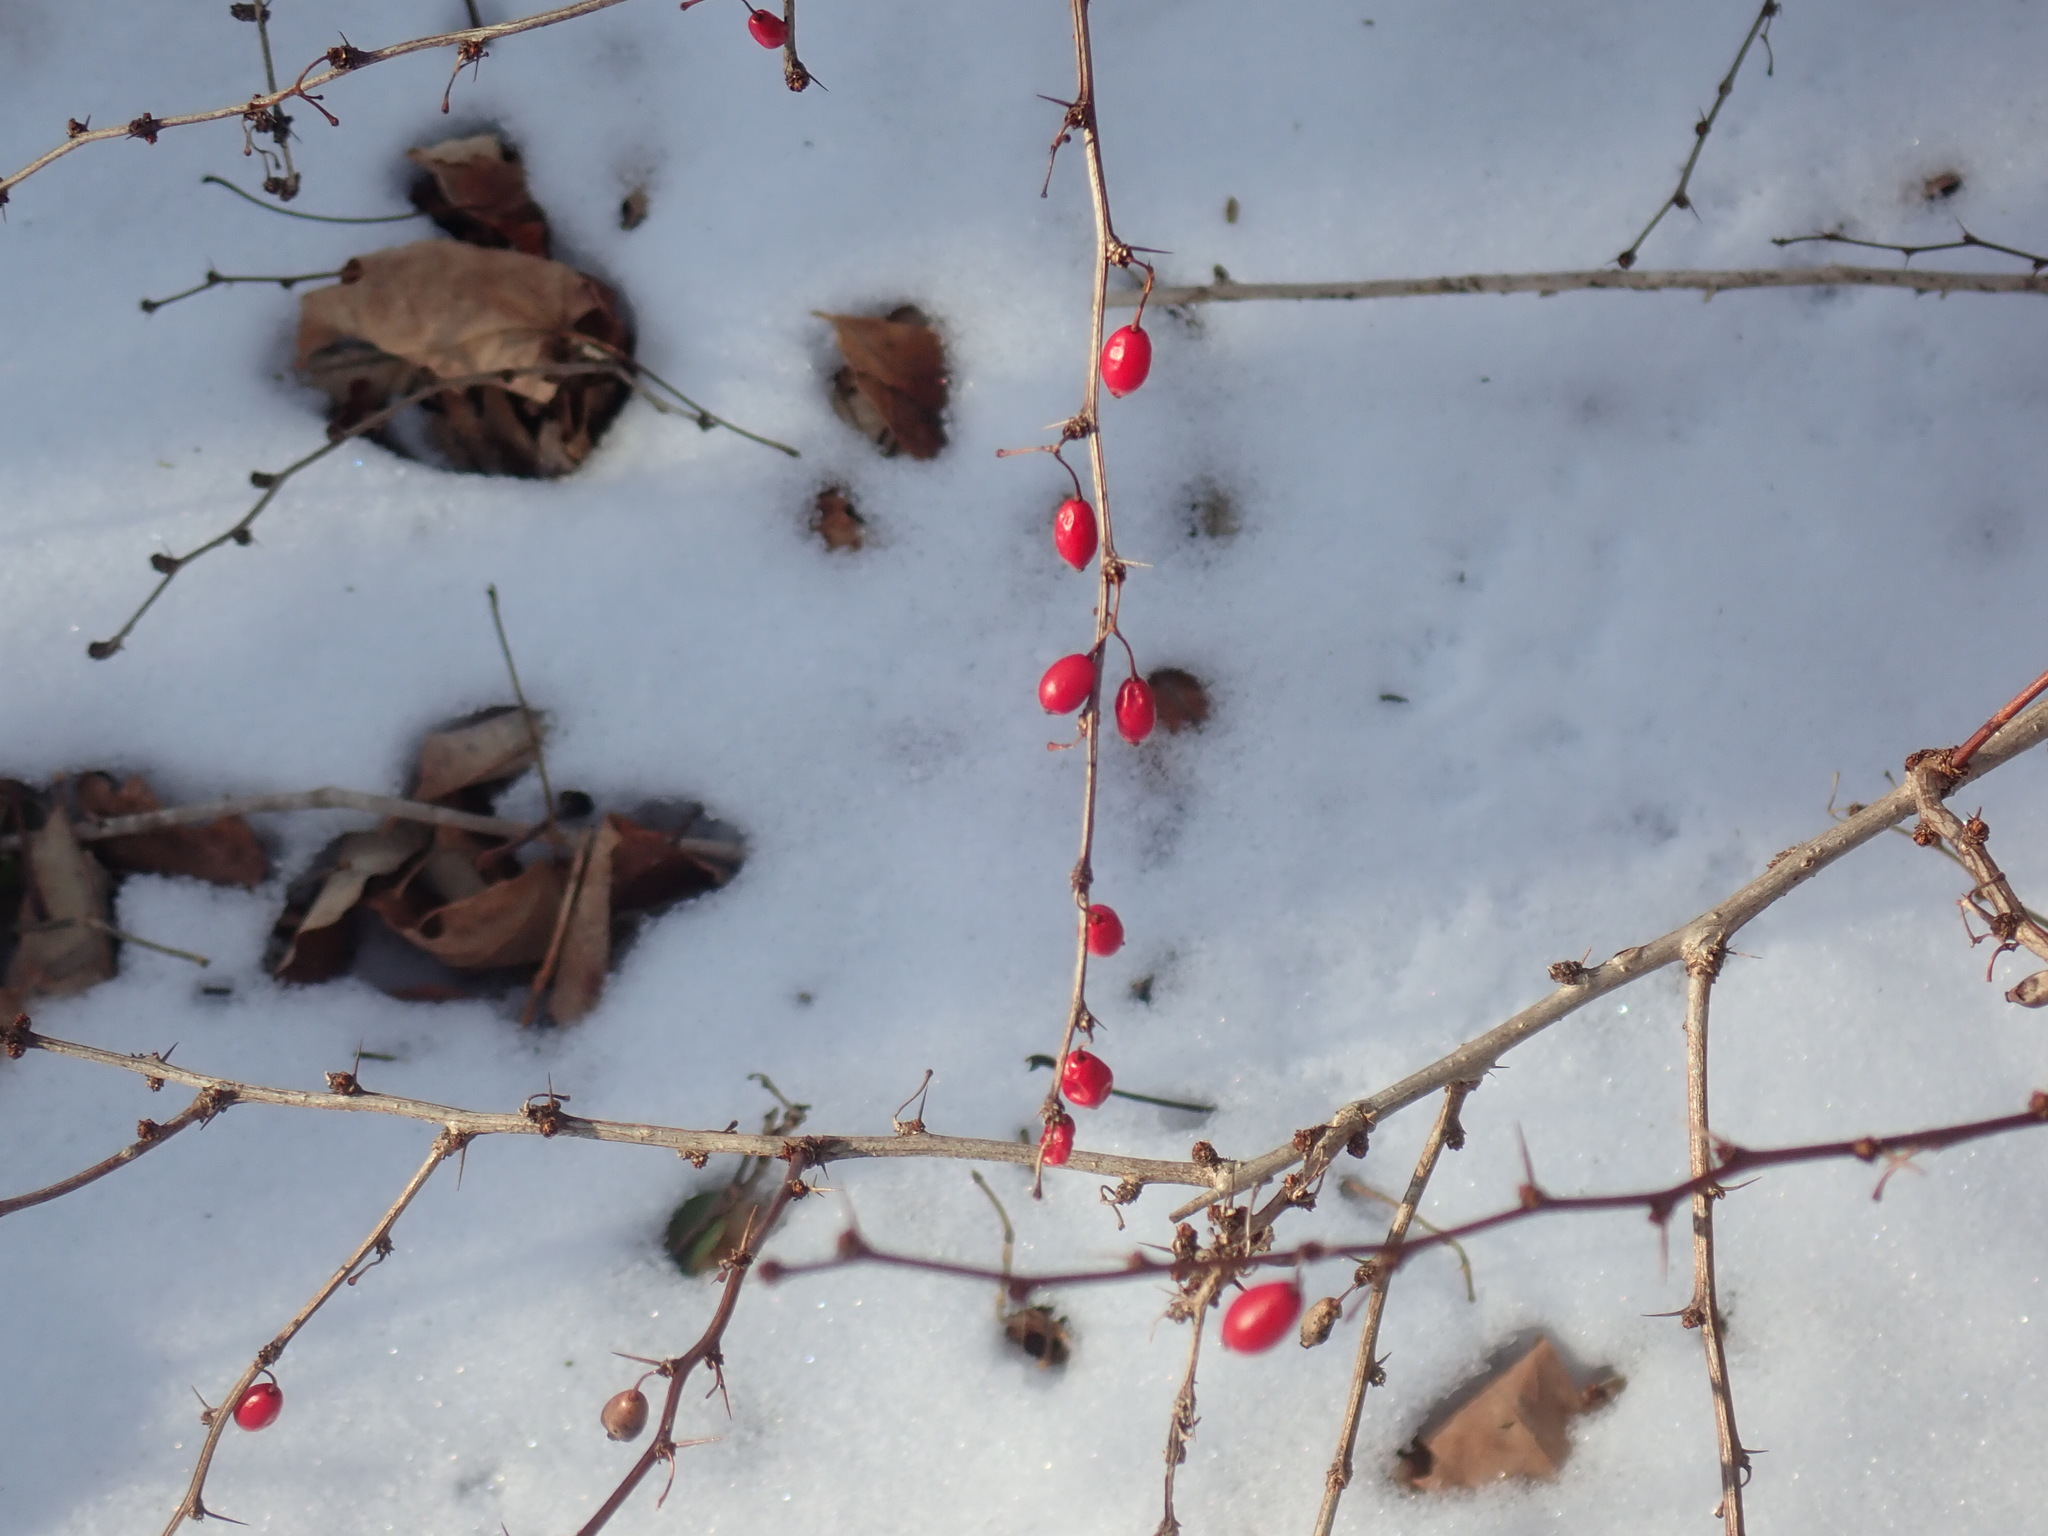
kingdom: Plantae
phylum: Tracheophyta
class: Magnoliopsida
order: Ranunculales
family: Berberidaceae
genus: Berberis
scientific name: Berberis thunbergii
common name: Japanese barberry
